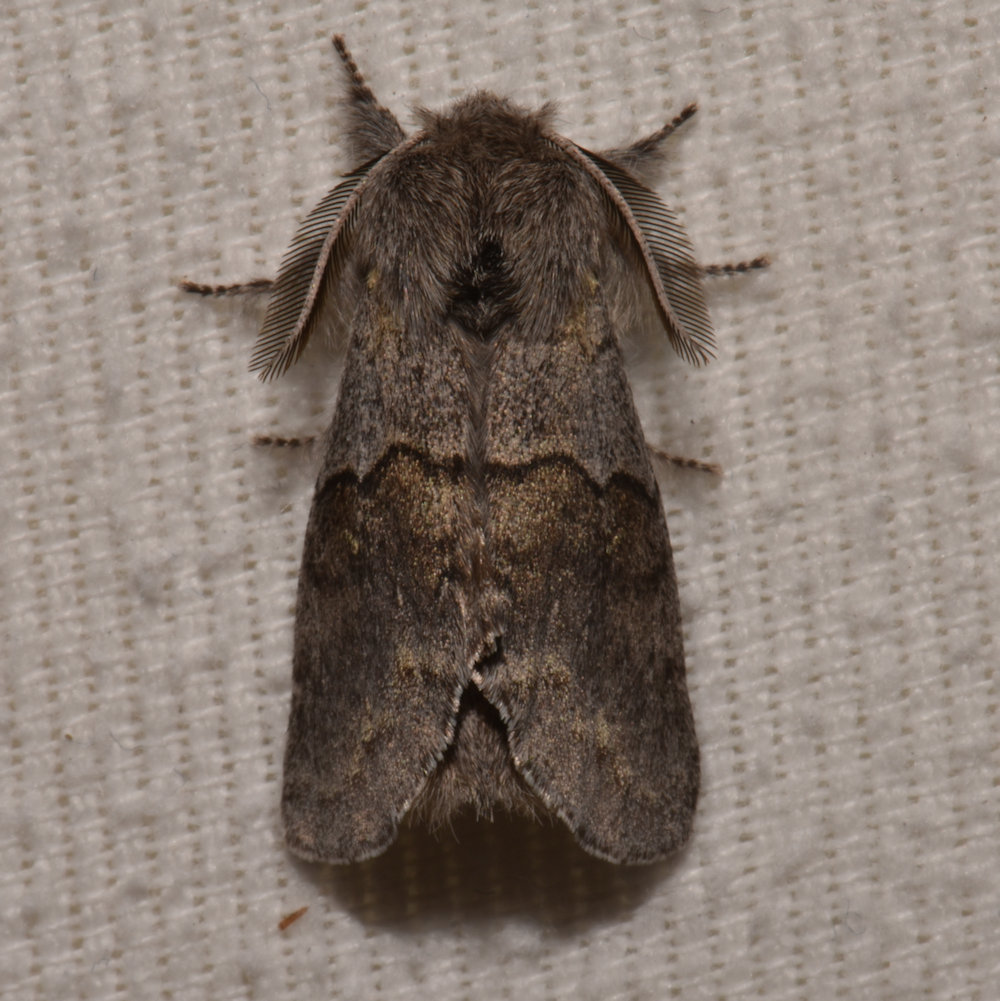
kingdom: Animalia
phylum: Arthropoda
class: Insecta
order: Lepidoptera
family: Notodontidae
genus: Gluphisia
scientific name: Gluphisia lintneri
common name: Lintner's gluphisia moth
